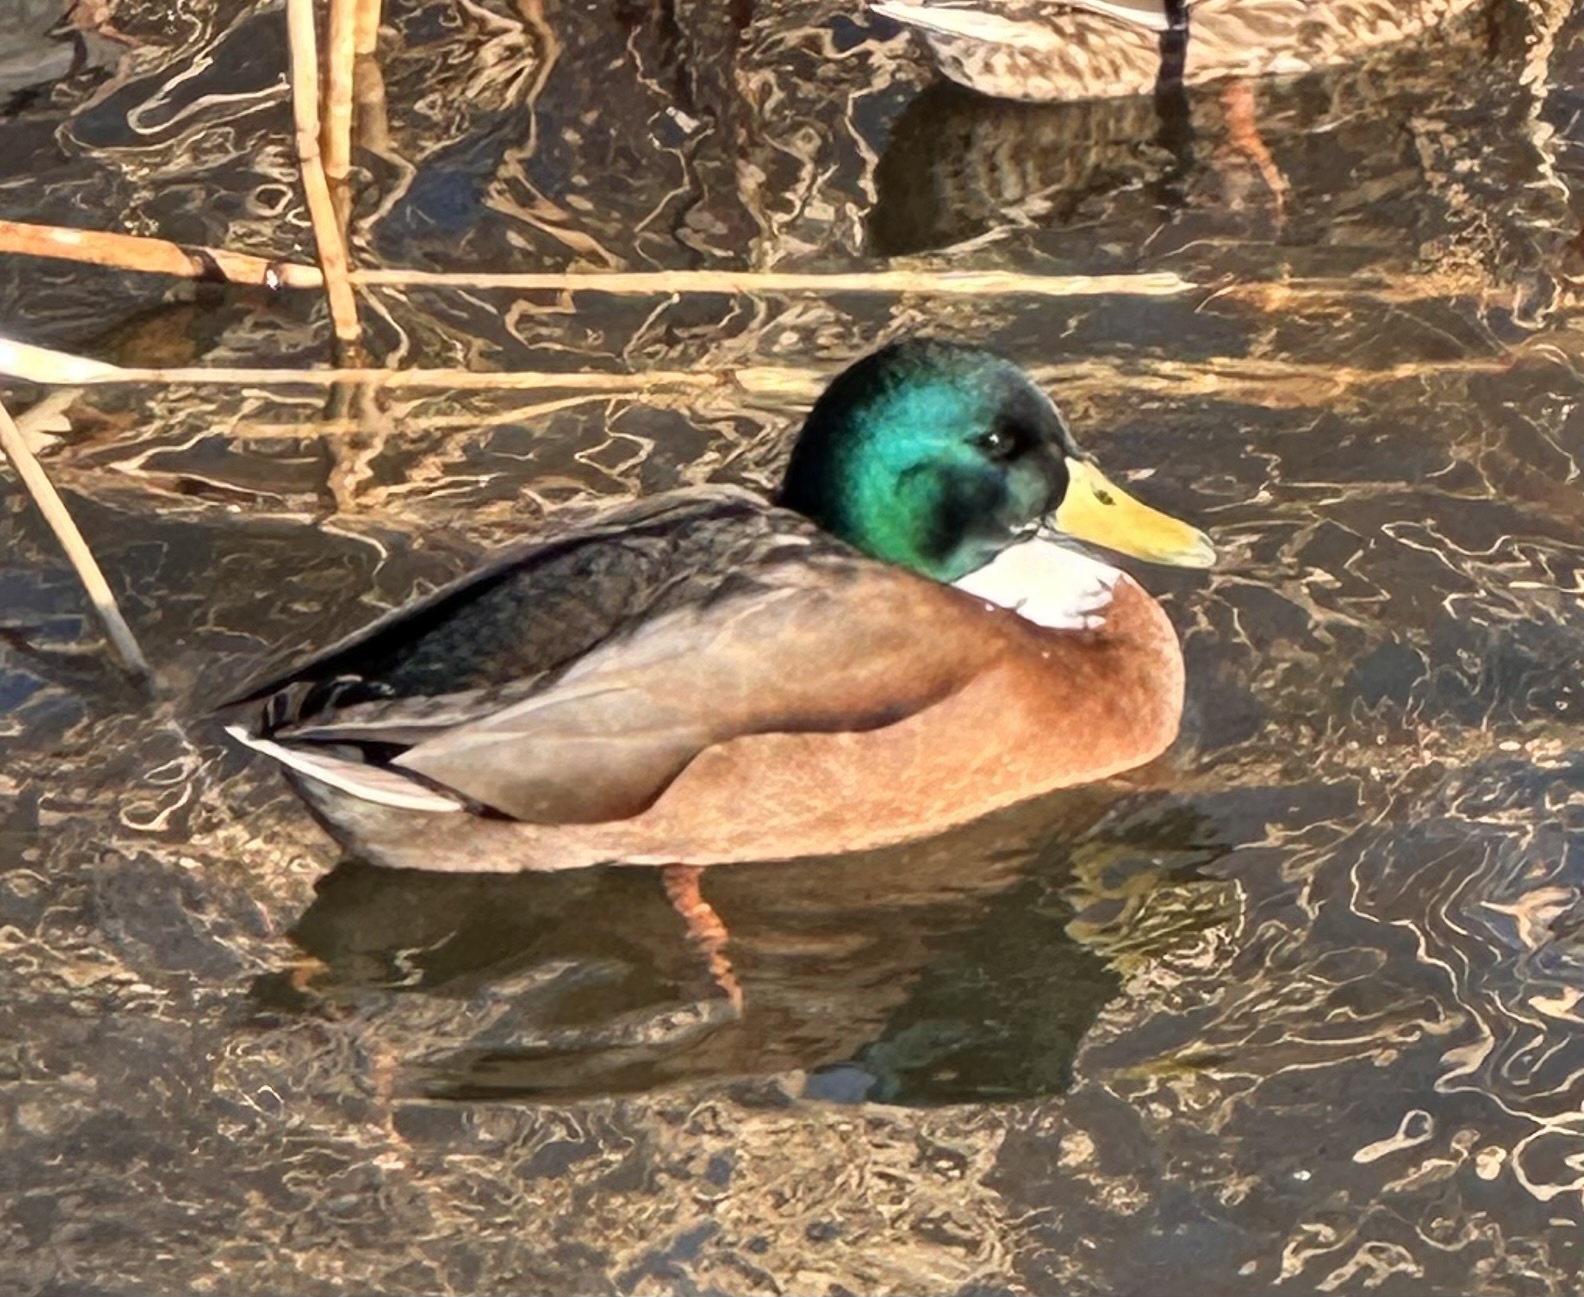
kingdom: Animalia
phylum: Chordata
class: Aves
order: Anseriformes
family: Anatidae
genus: Anas
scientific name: Anas platyrhynchos
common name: Mallard
